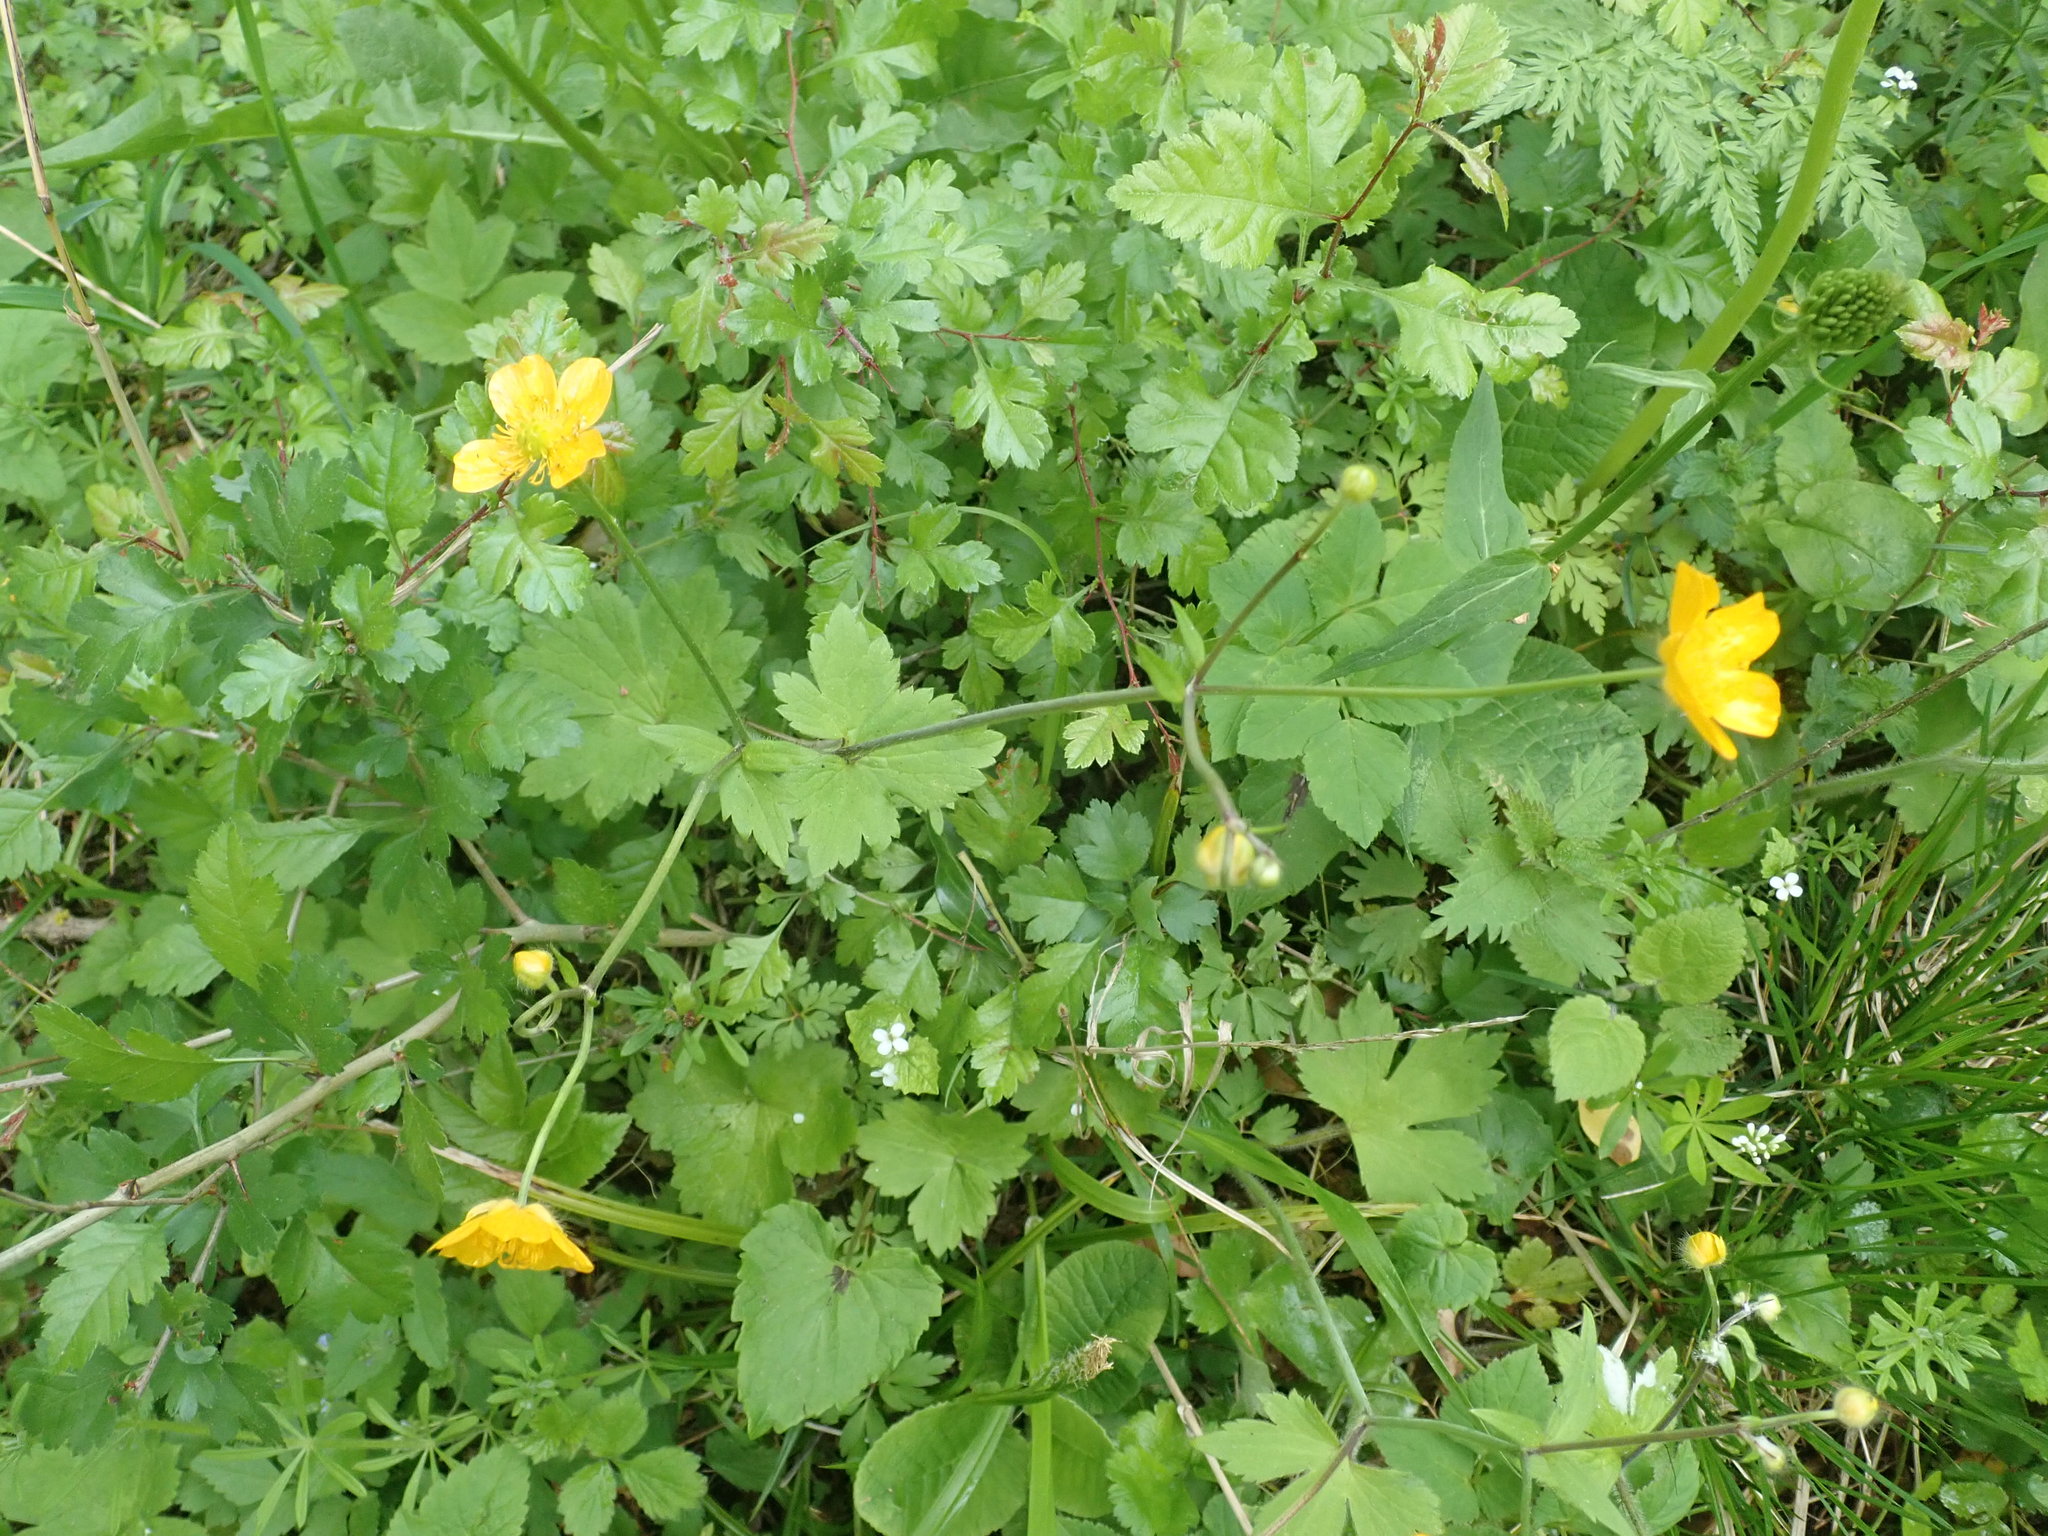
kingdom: Plantae
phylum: Tracheophyta
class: Magnoliopsida
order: Ranunculales
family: Ranunculaceae
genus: Ranunculus
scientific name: Ranunculus lanuginosus
